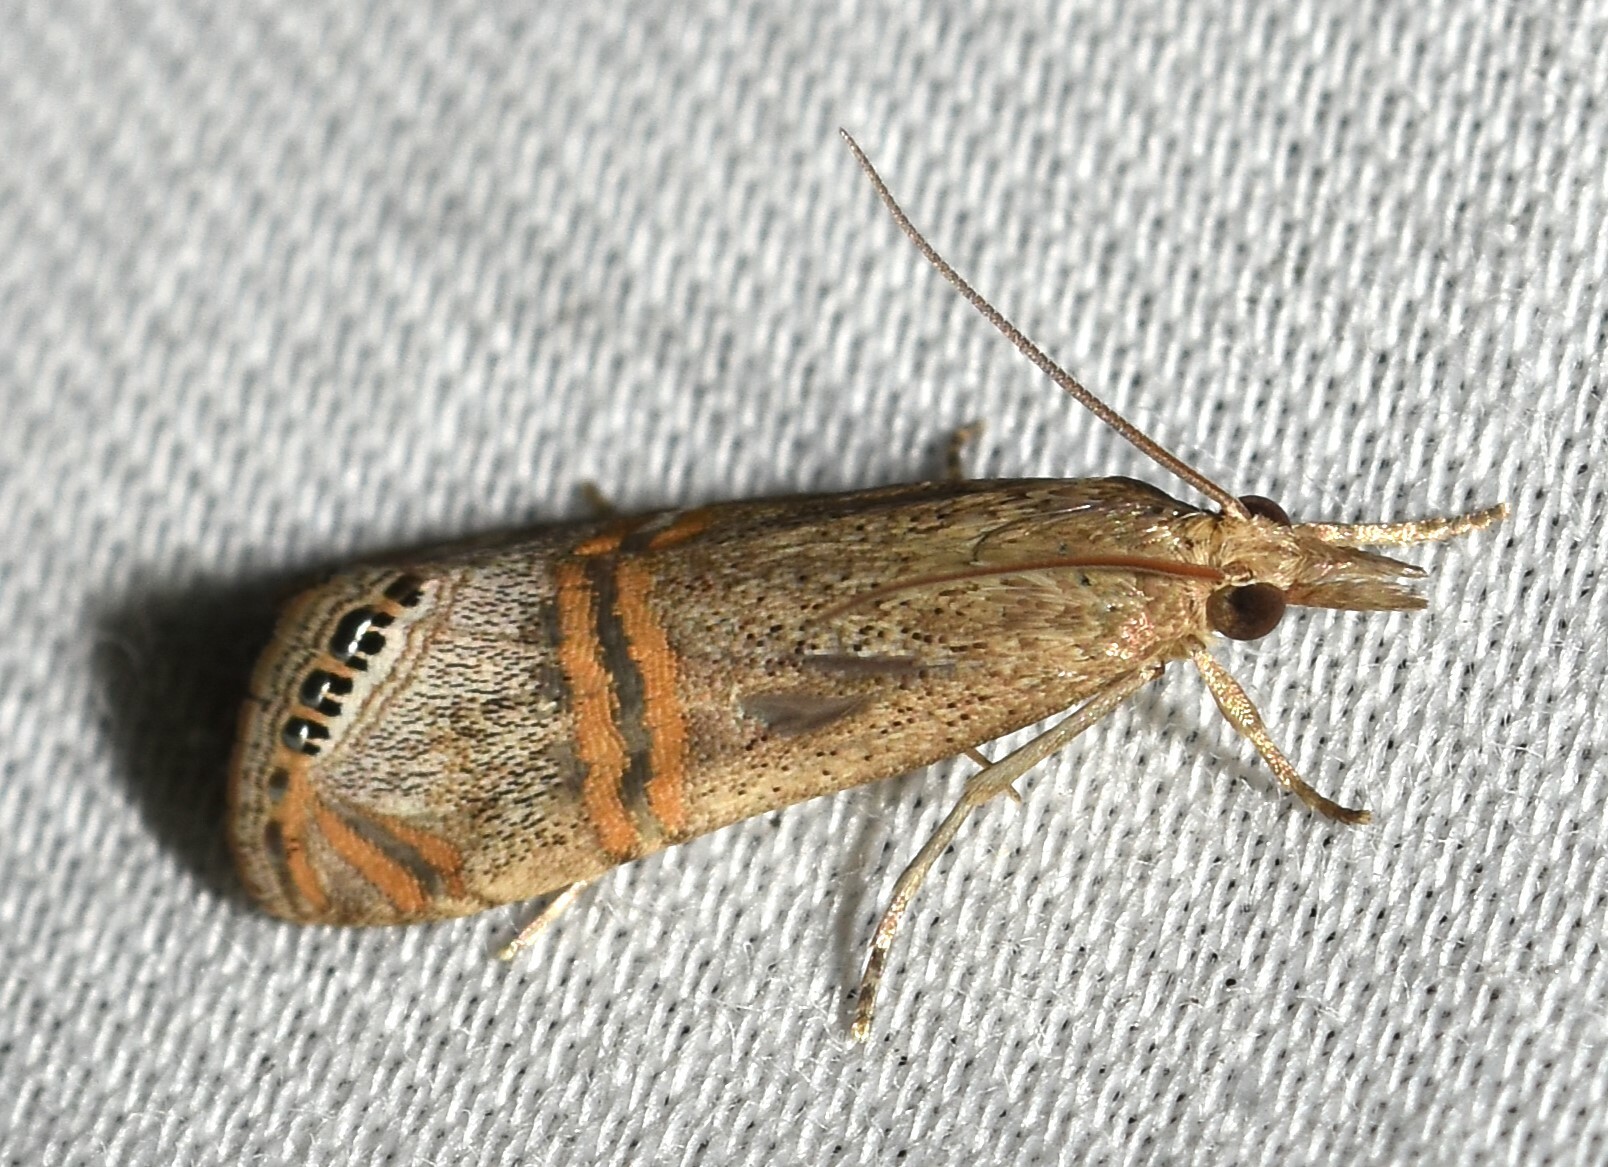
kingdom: Animalia
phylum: Arthropoda
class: Insecta
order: Lepidoptera
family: Crambidae
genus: Euchromius
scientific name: Euchromius ocellea
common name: Necklace veneer moth
